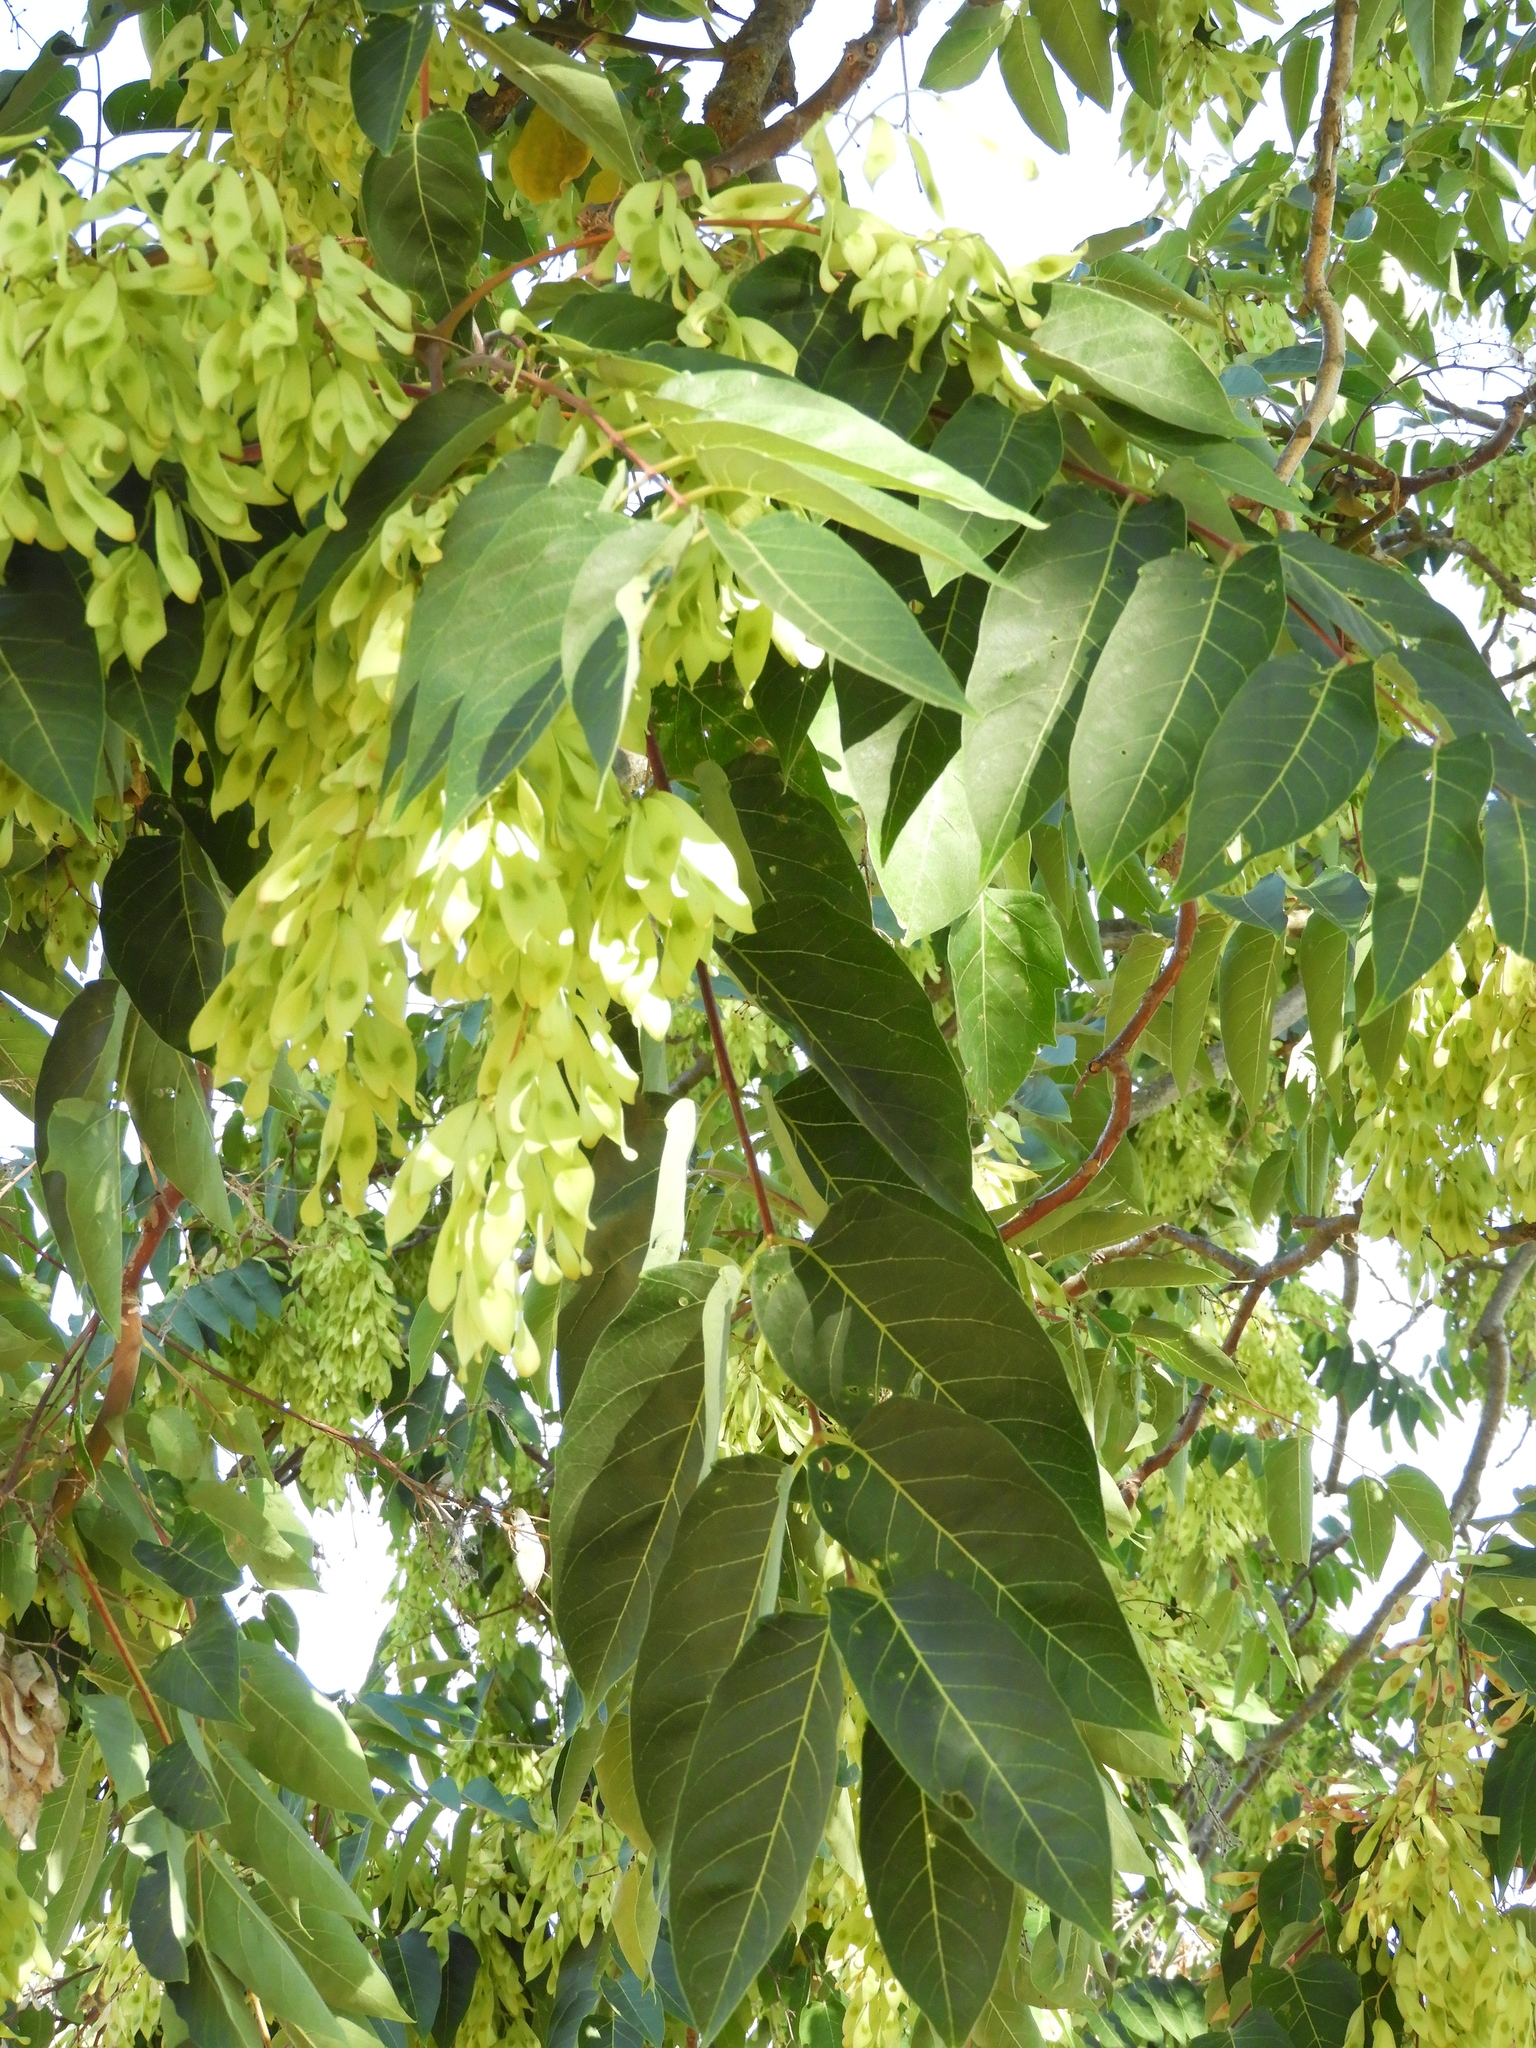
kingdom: Plantae
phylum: Tracheophyta
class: Magnoliopsida
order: Sapindales
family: Simaroubaceae
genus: Ailanthus
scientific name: Ailanthus altissima
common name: Tree-of-heaven
